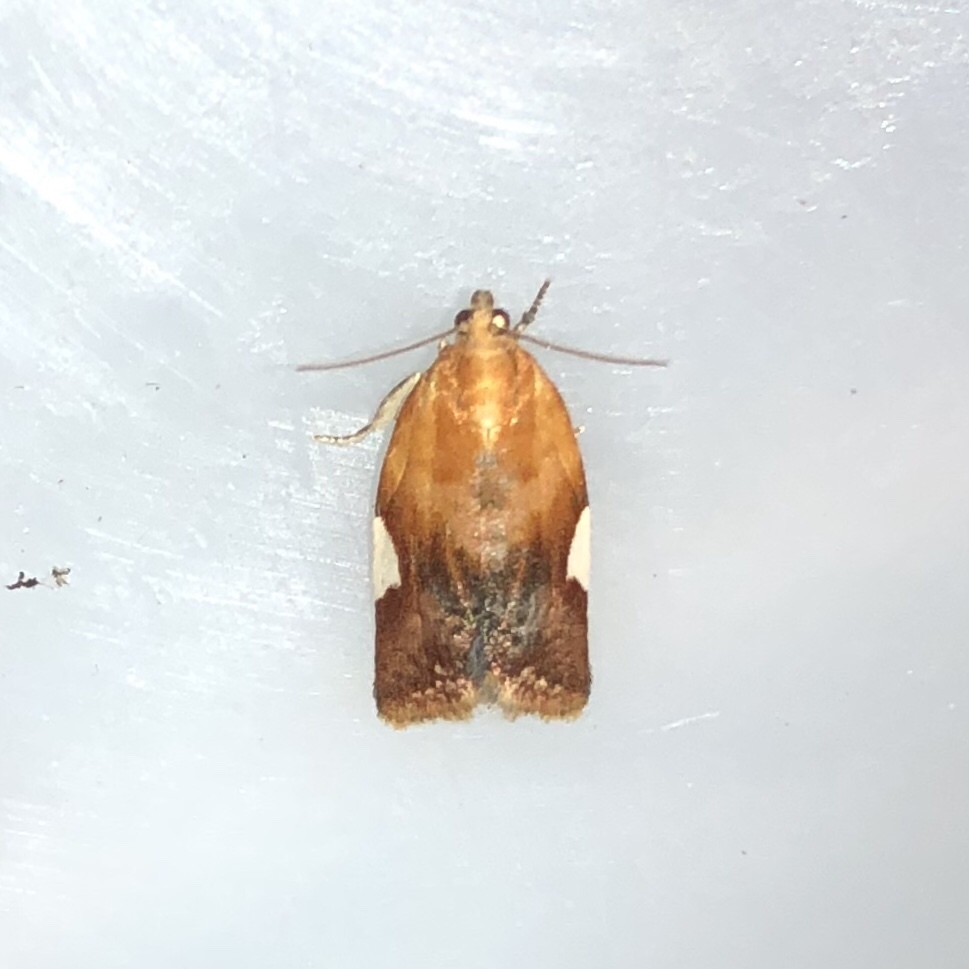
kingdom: Animalia
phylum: Arthropoda
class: Insecta
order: Lepidoptera
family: Tortricidae
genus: Clepsis
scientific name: Clepsis persicana
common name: White triangle tortrix
